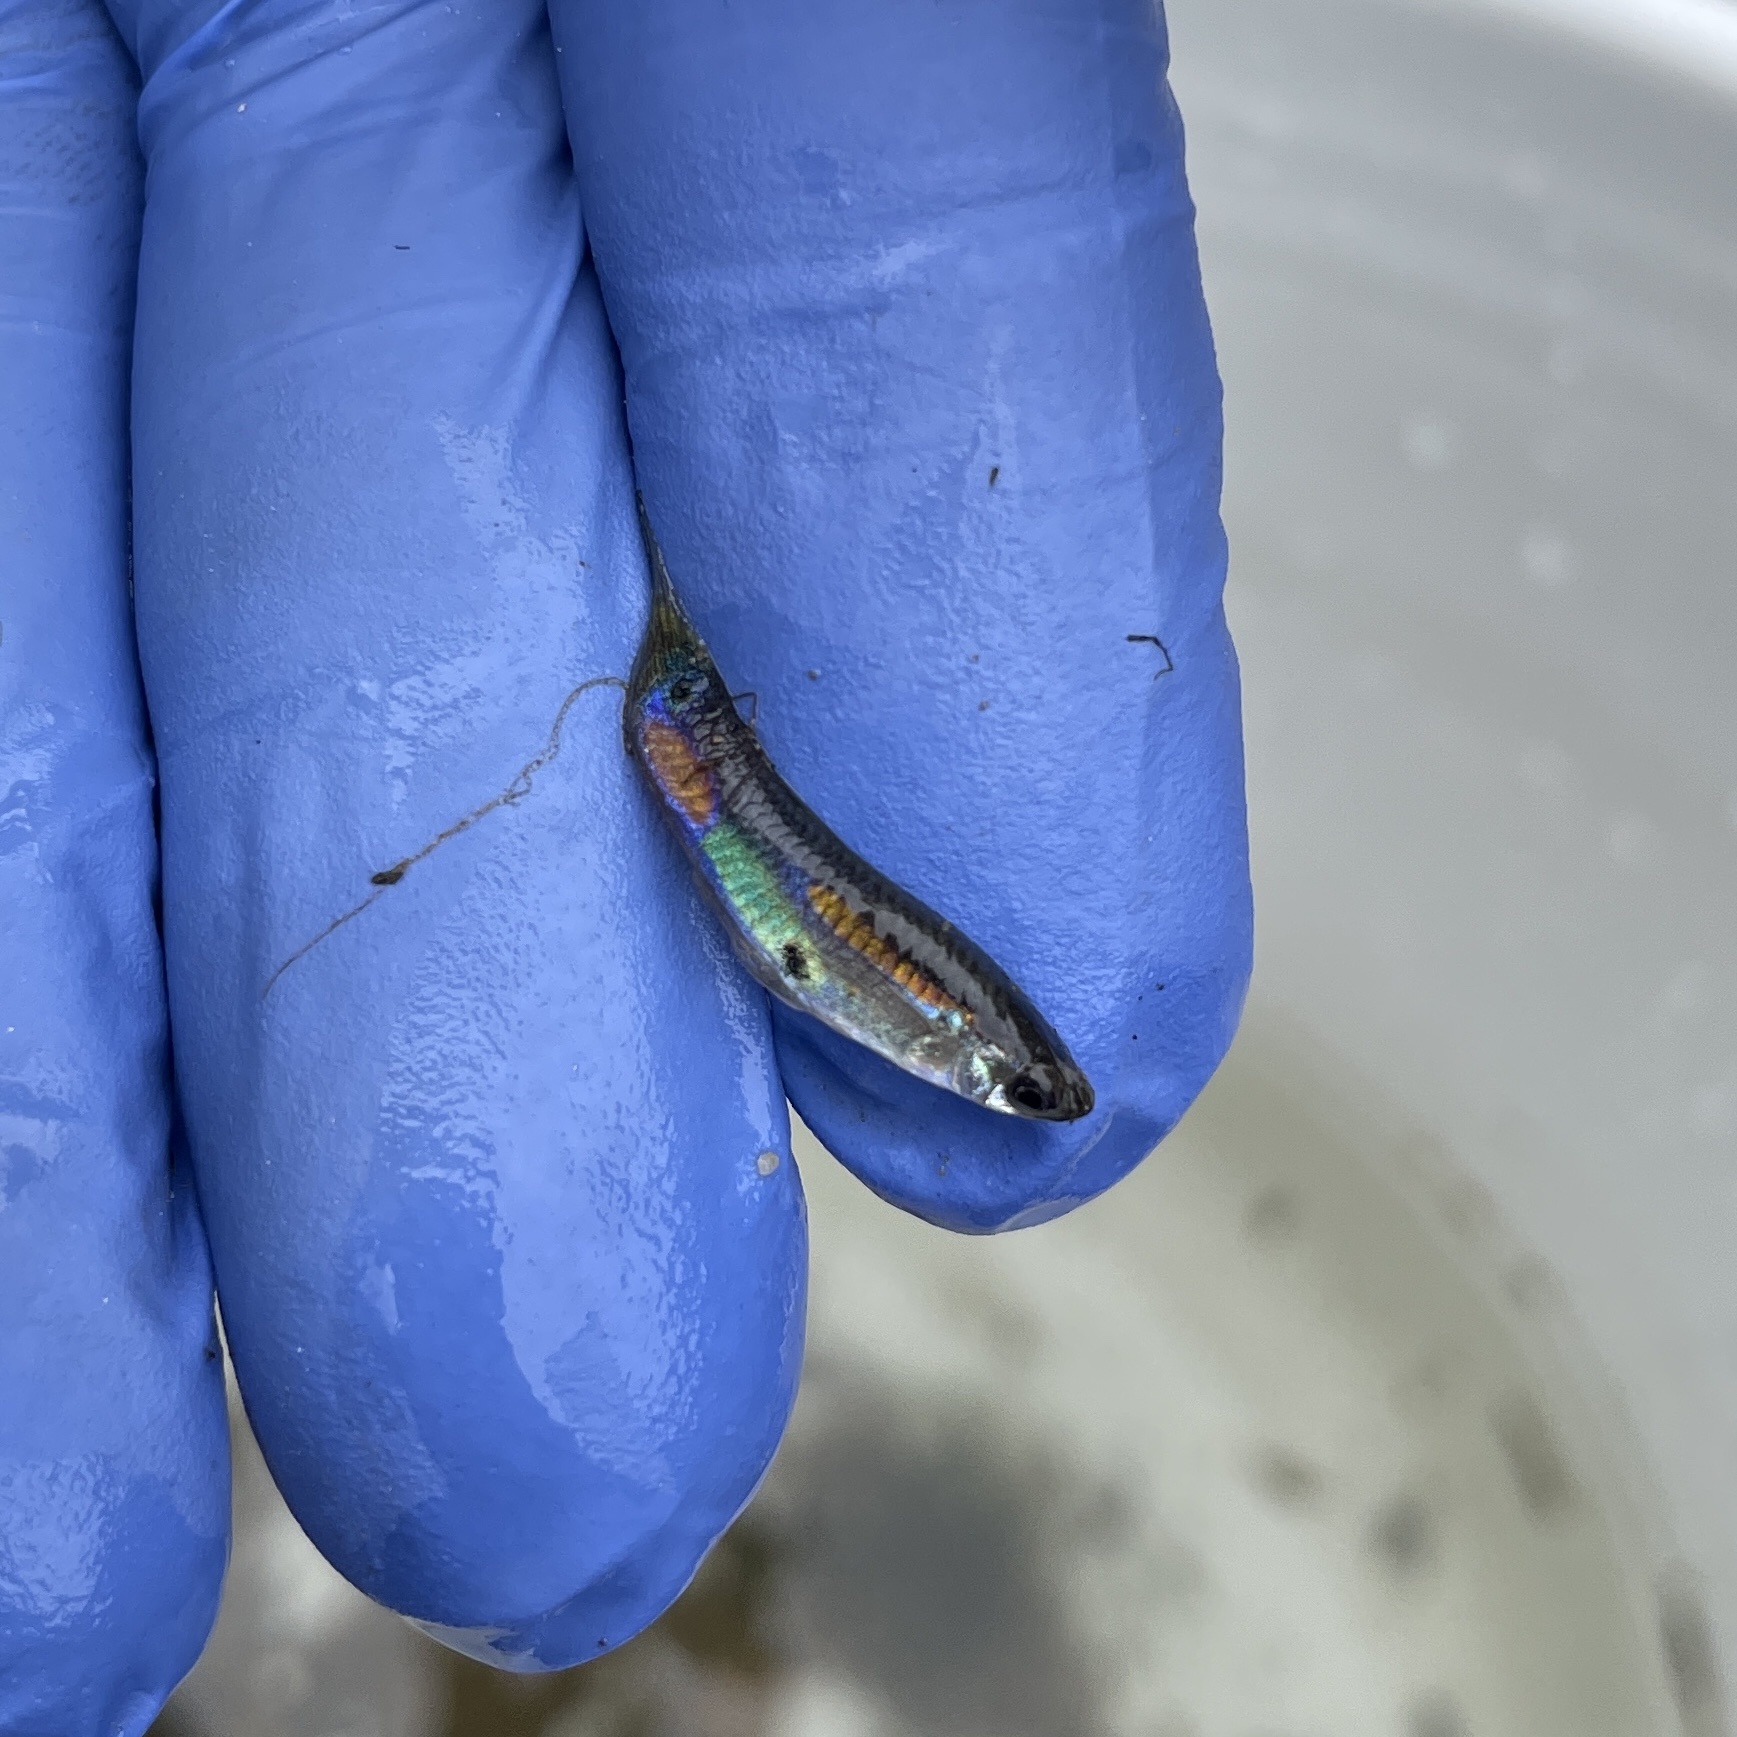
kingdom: Animalia
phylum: Chordata
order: Cyprinodontiformes
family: Poeciliidae
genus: Poecilia
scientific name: Poecilia reticulata
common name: Guppy
